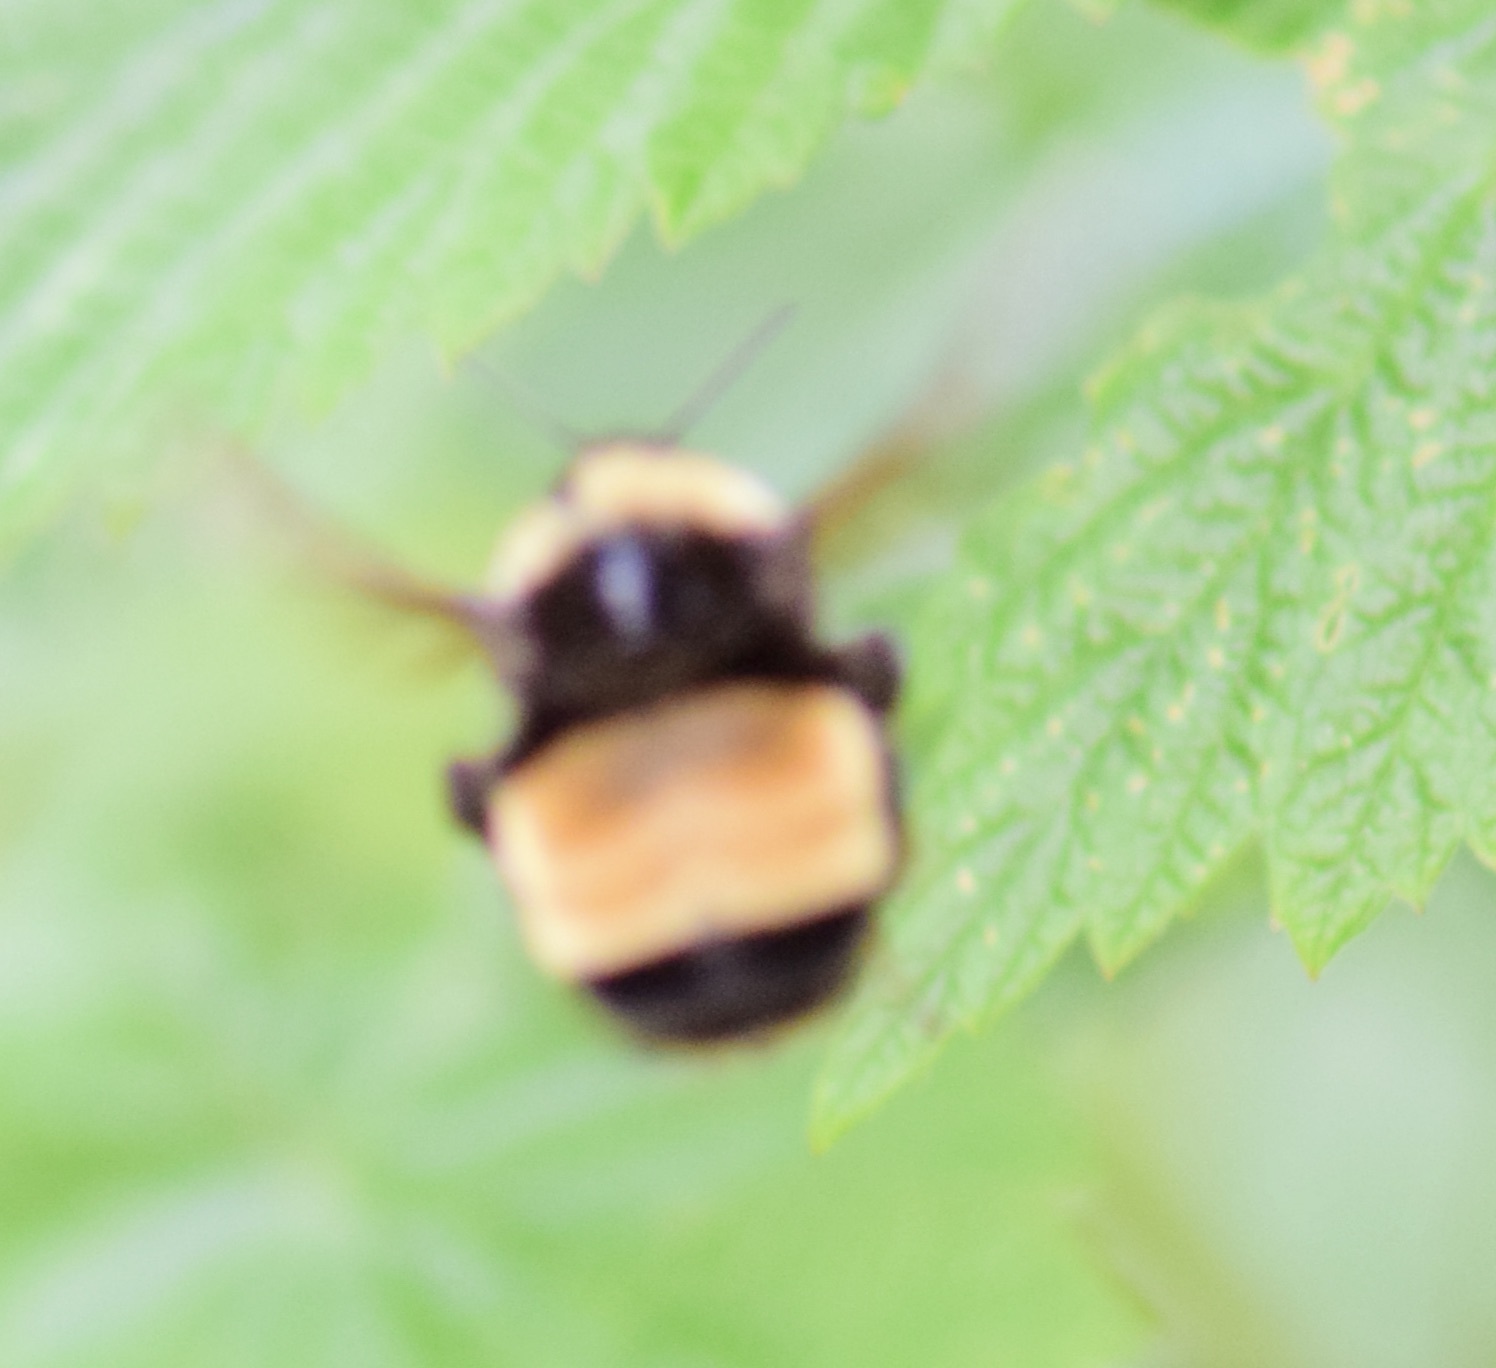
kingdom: Animalia
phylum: Arthropoda
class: Insecta
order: Hymenoptera
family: Apidae
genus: Bombus
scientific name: Bombus terricola
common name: Yellow-banded bumble bee
